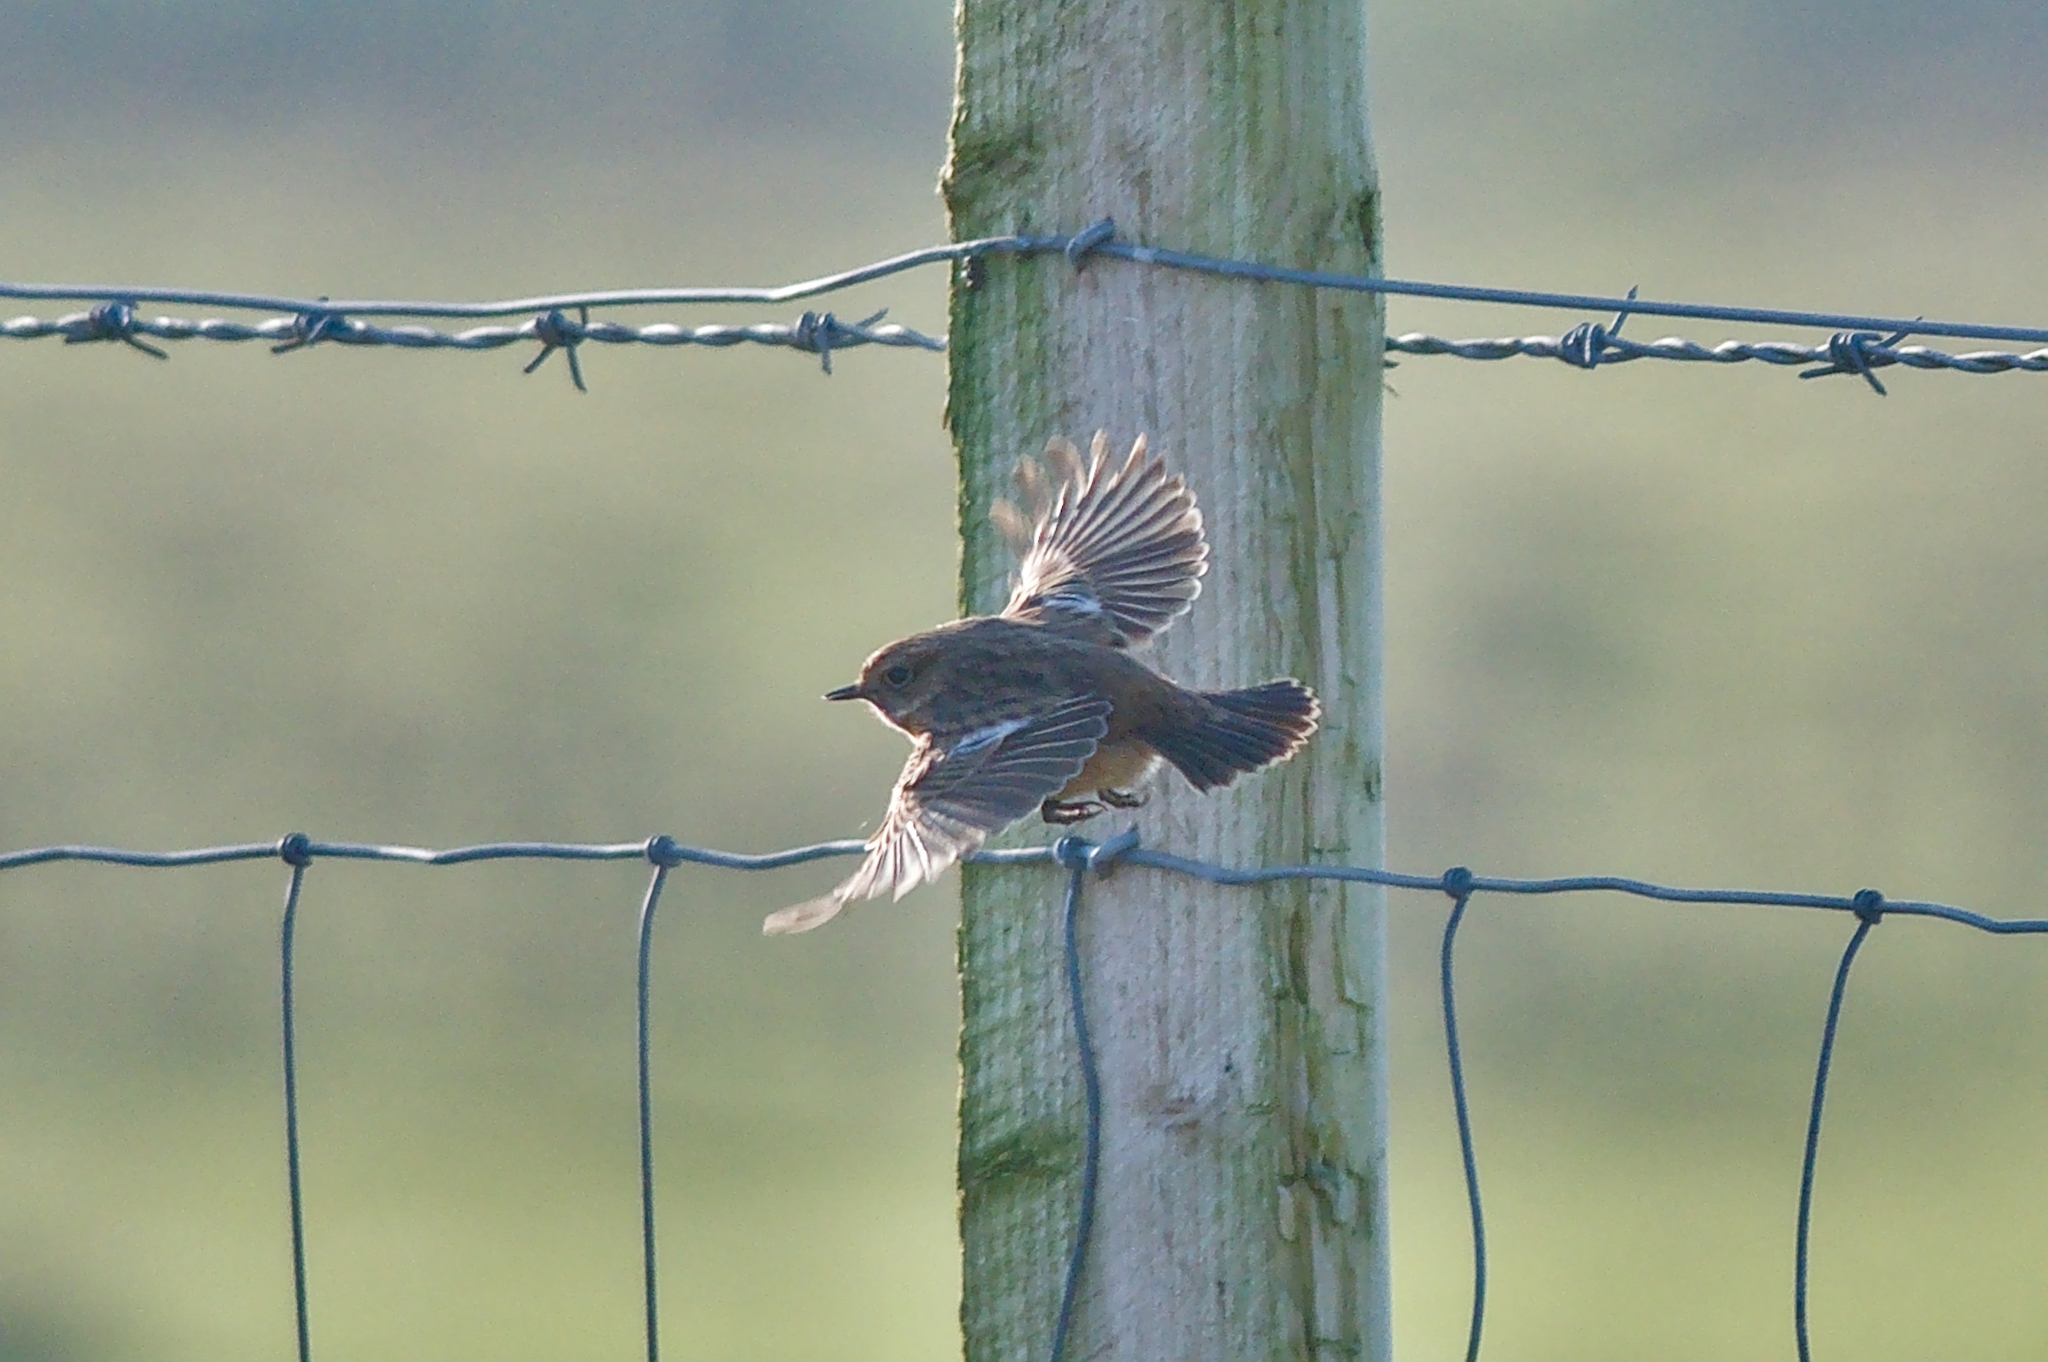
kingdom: Animalia
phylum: Chordata
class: Aves
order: Passeriformes
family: Muscicapidae
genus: Saxicola
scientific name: Saxicola rubicola
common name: European stonechat
